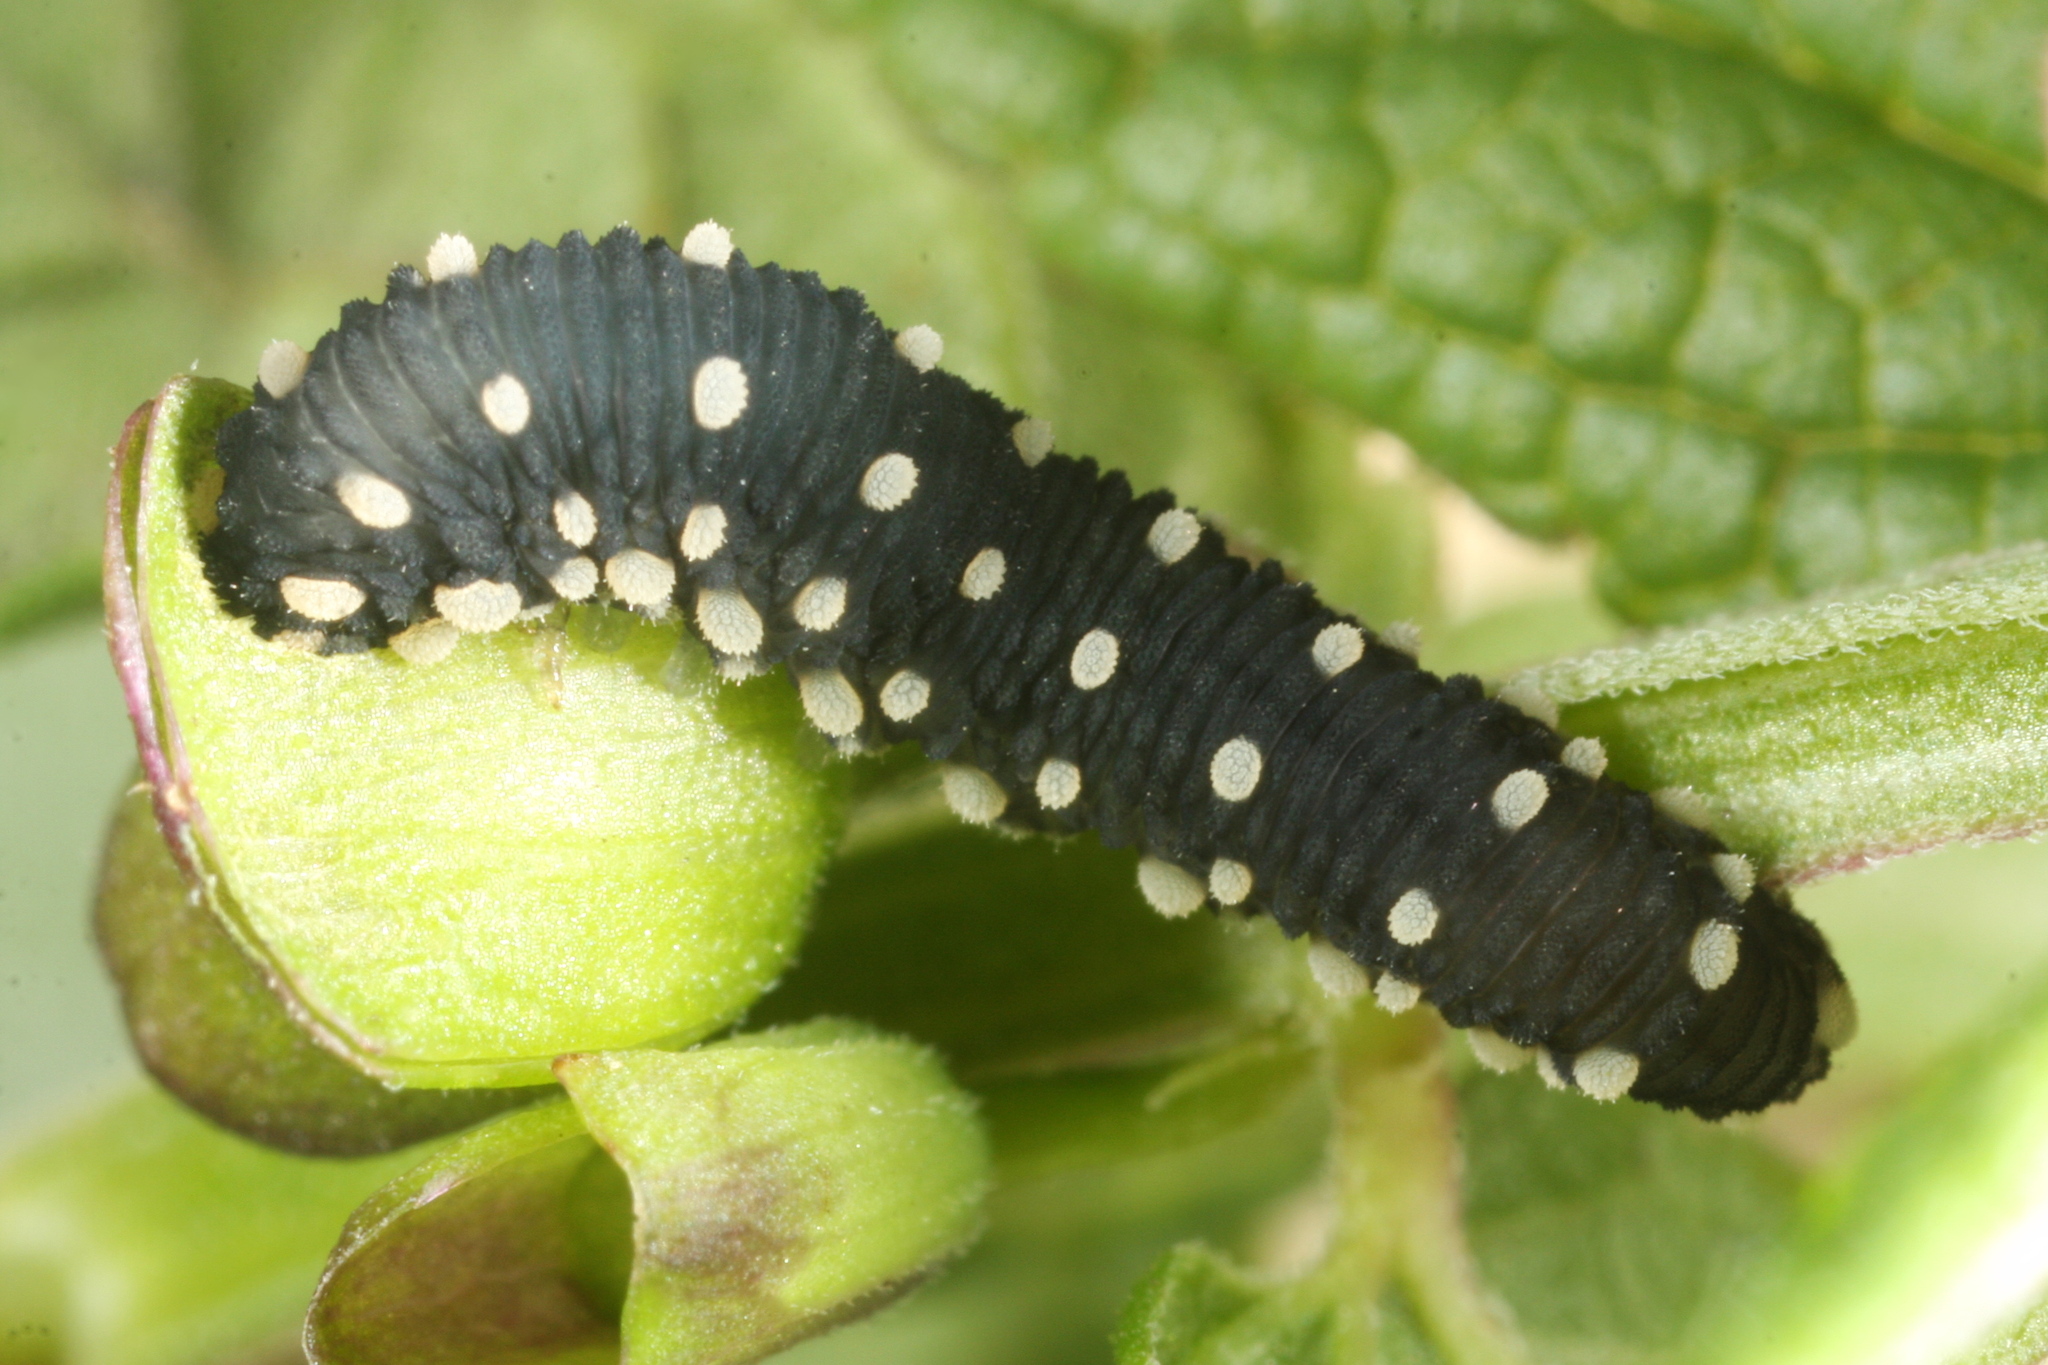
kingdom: Animalia
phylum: Arthropoda
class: Insecta
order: Hymenoptera
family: Tenthredinidae
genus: Athalia
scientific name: Athalia scutellariae
